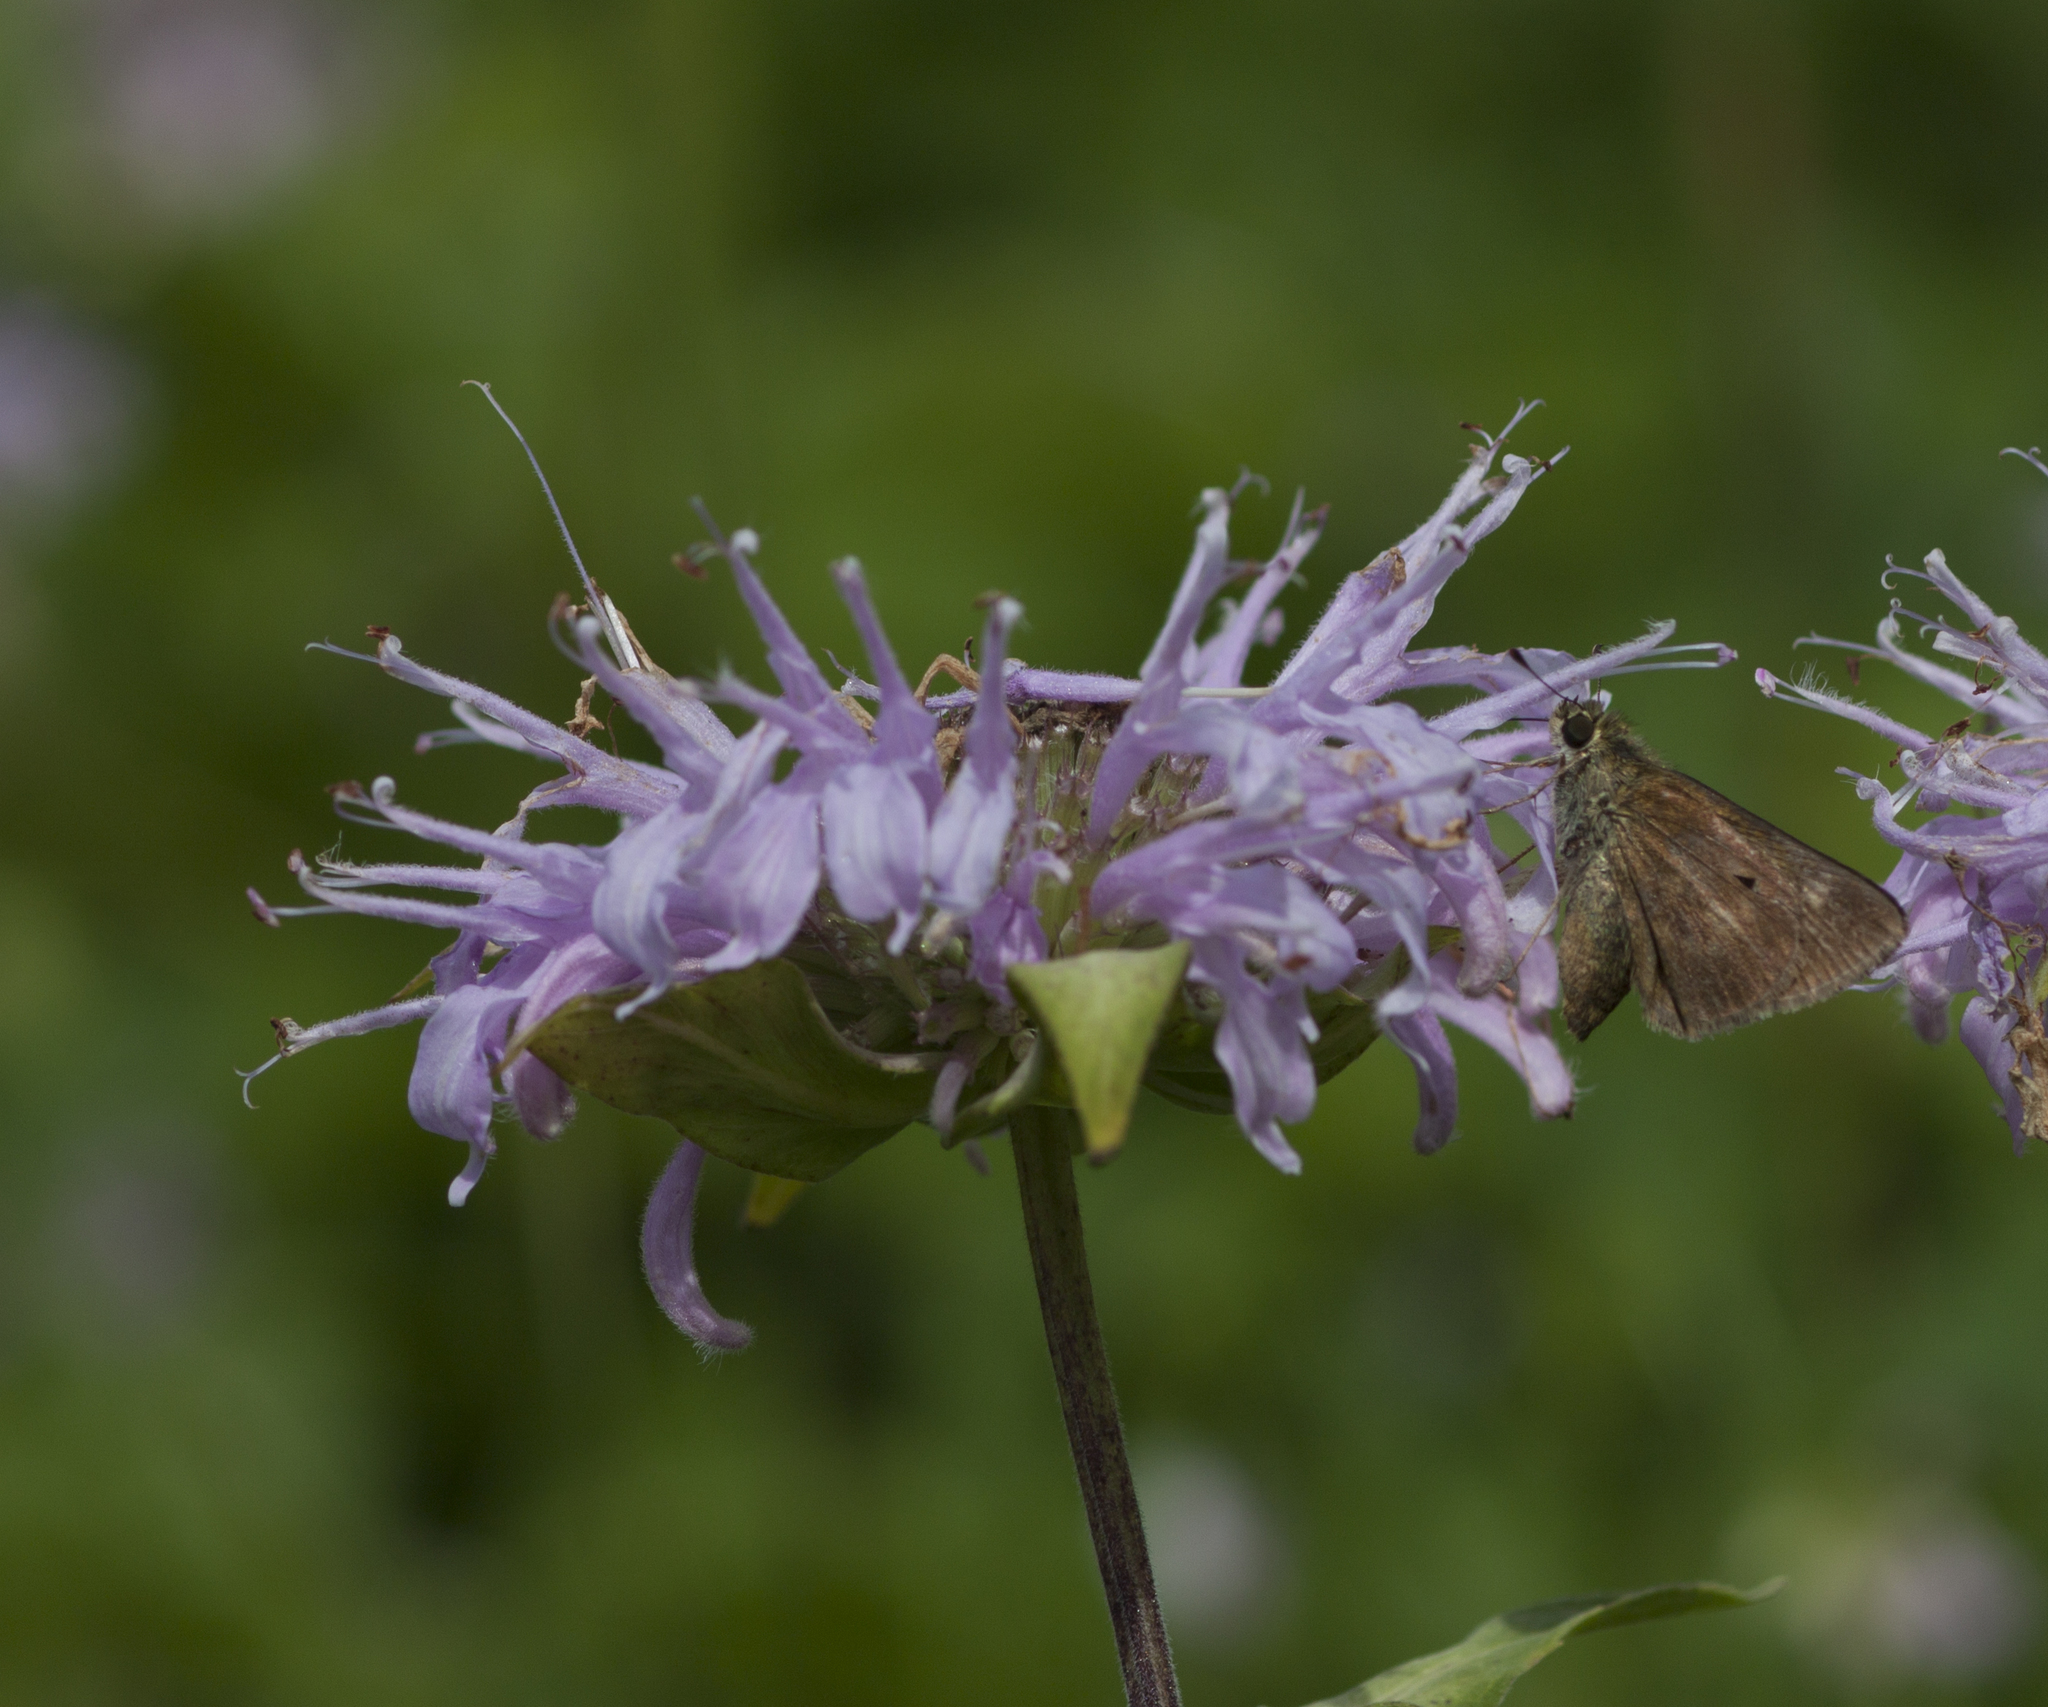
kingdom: Animalia
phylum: Arthropoda
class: Insecta
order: Lepidoptera
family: Hesperiidae
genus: Euphyes
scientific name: Euphyes vestris
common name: Dun skipper
